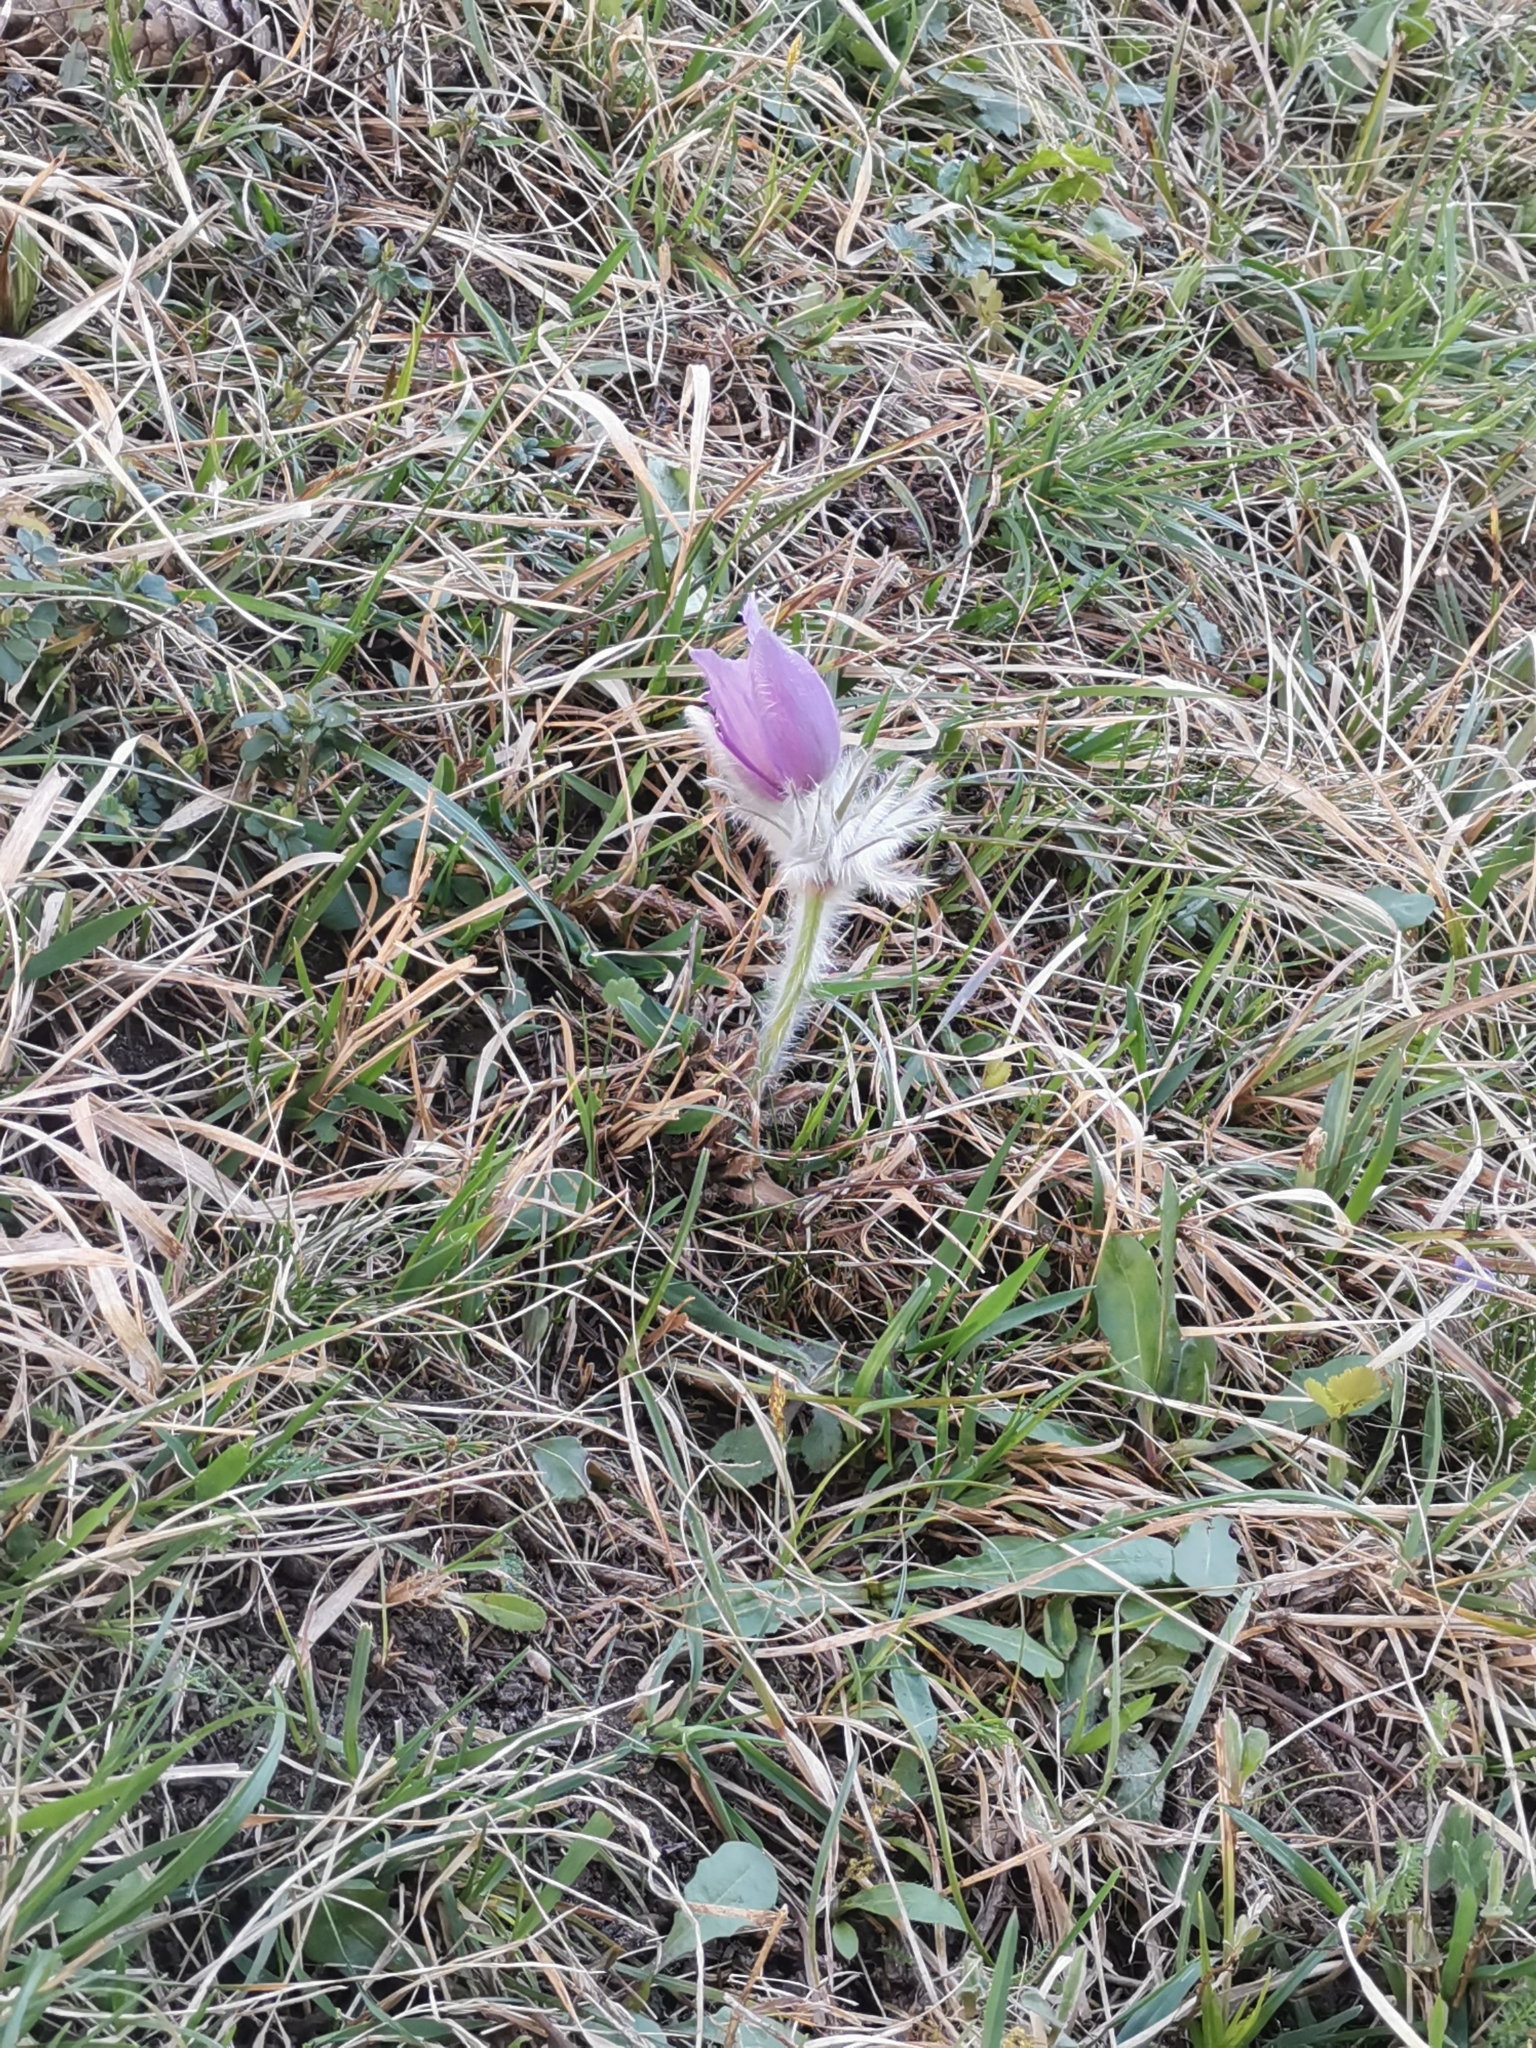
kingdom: Plantae
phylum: Tracheophyta
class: Magnoliopsida
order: Ranunculales
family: Ranunculaceae
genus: Pulsatilla
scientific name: Pulsatilla grandis
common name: Greater pasque flower
